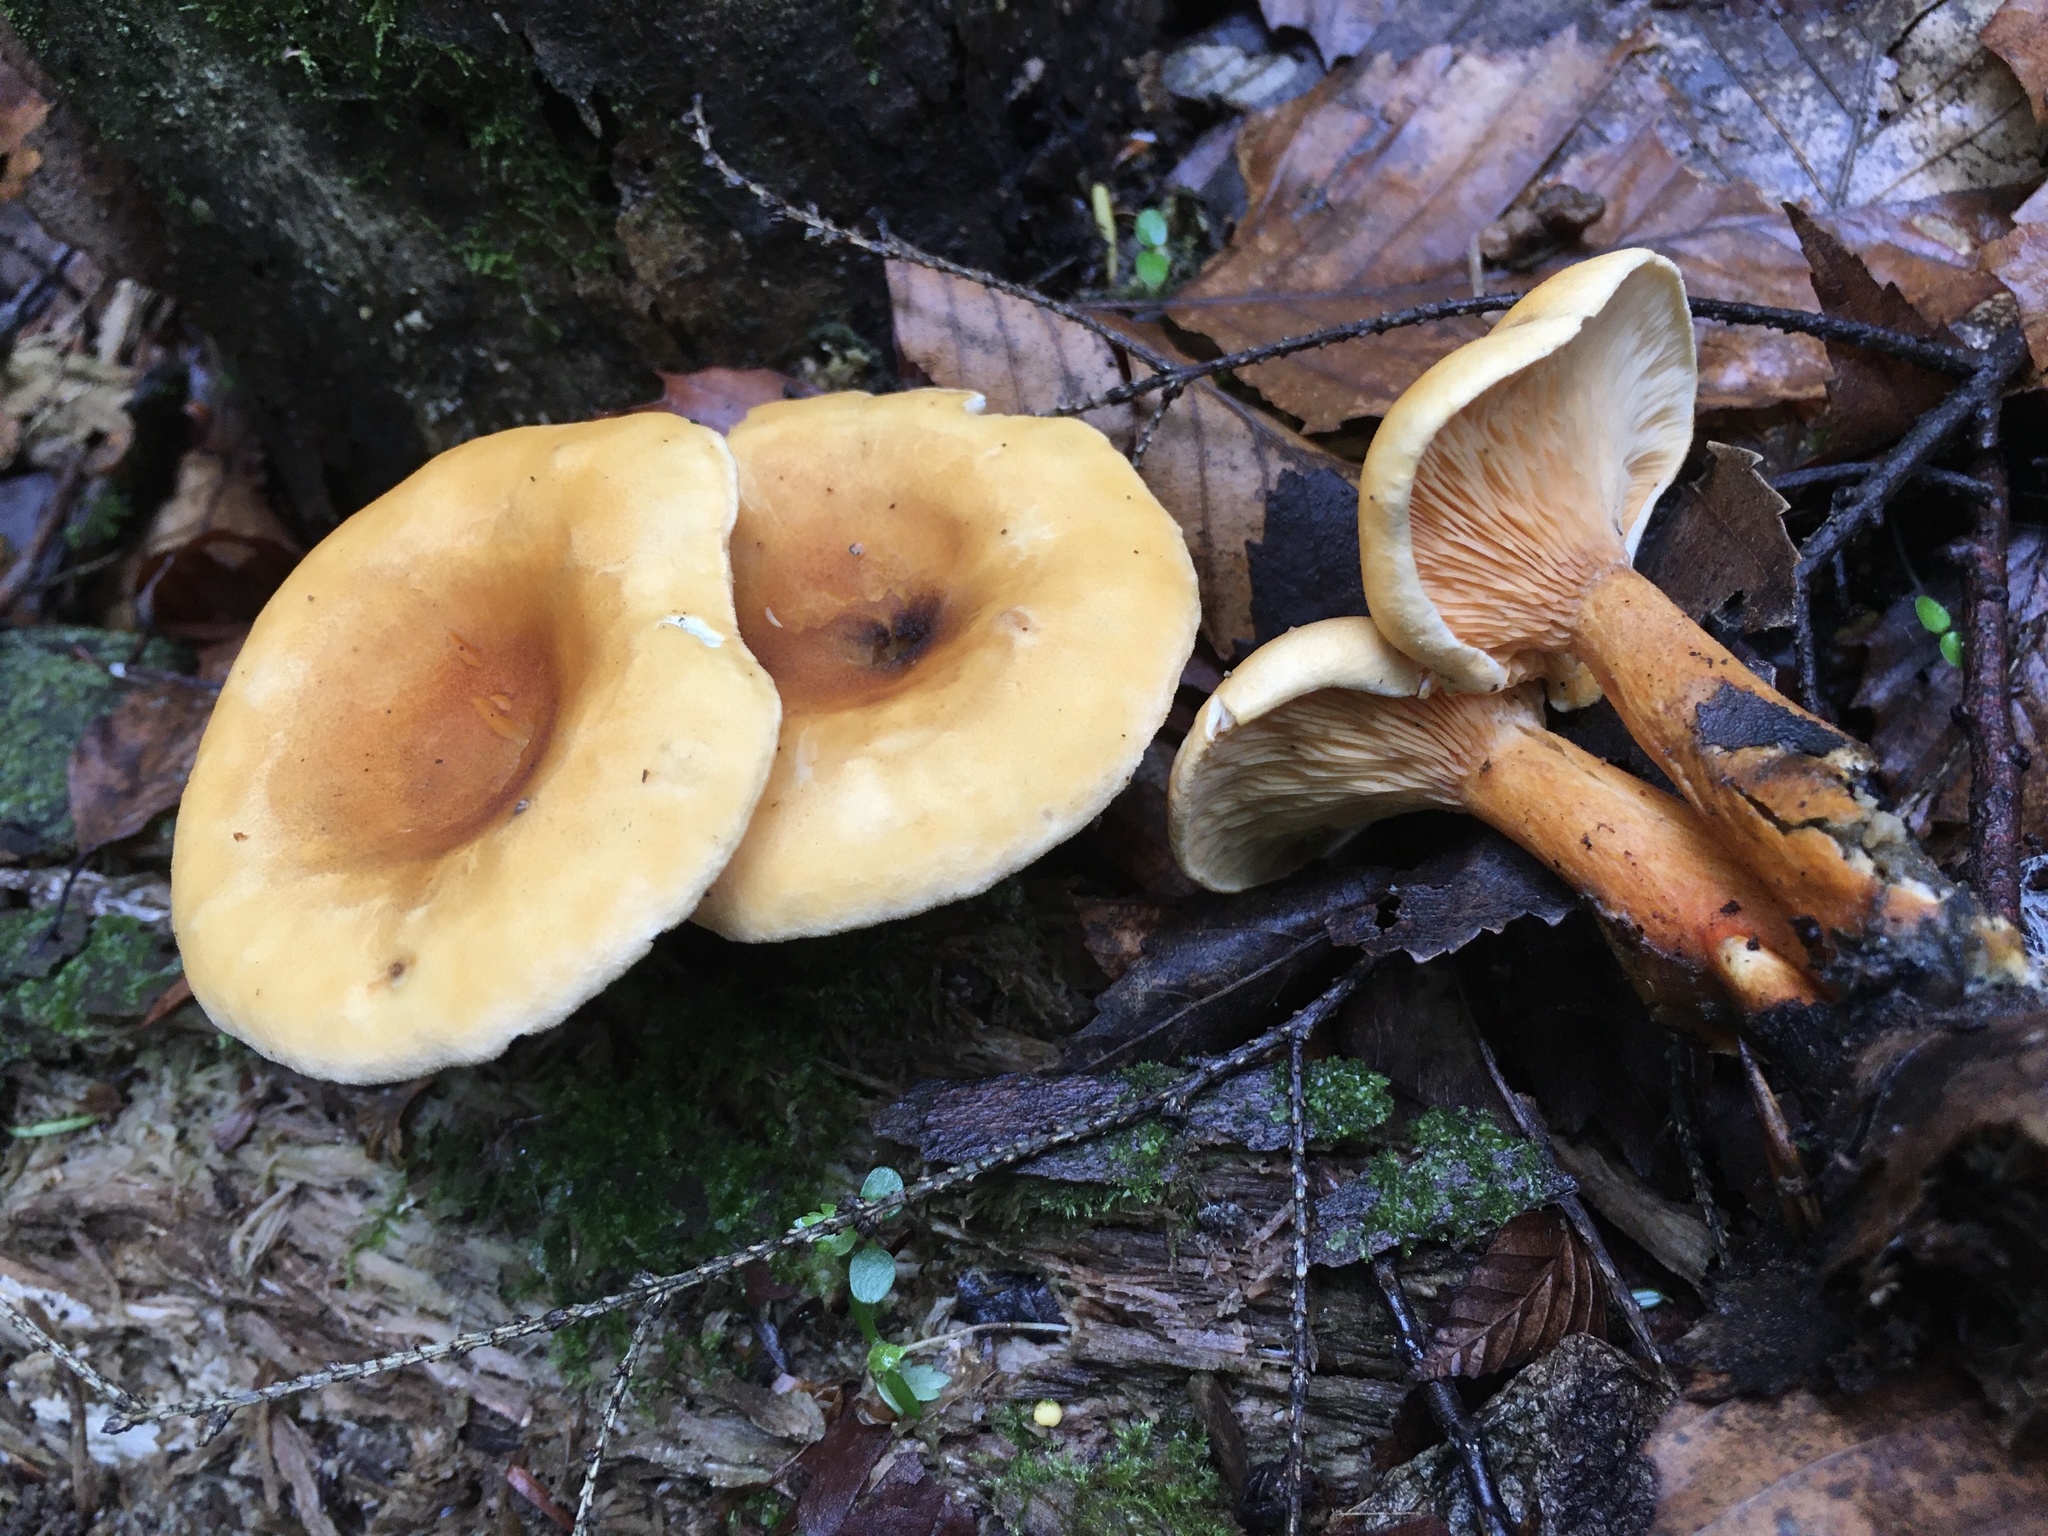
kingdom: Fungi
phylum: Basidiomycota
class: Agaricomycetes
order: Boletales
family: Hygrophoropsidaceae
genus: Hygrophoropsis
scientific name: Hygrophoropsis aurantiaca
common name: False chanterelle
